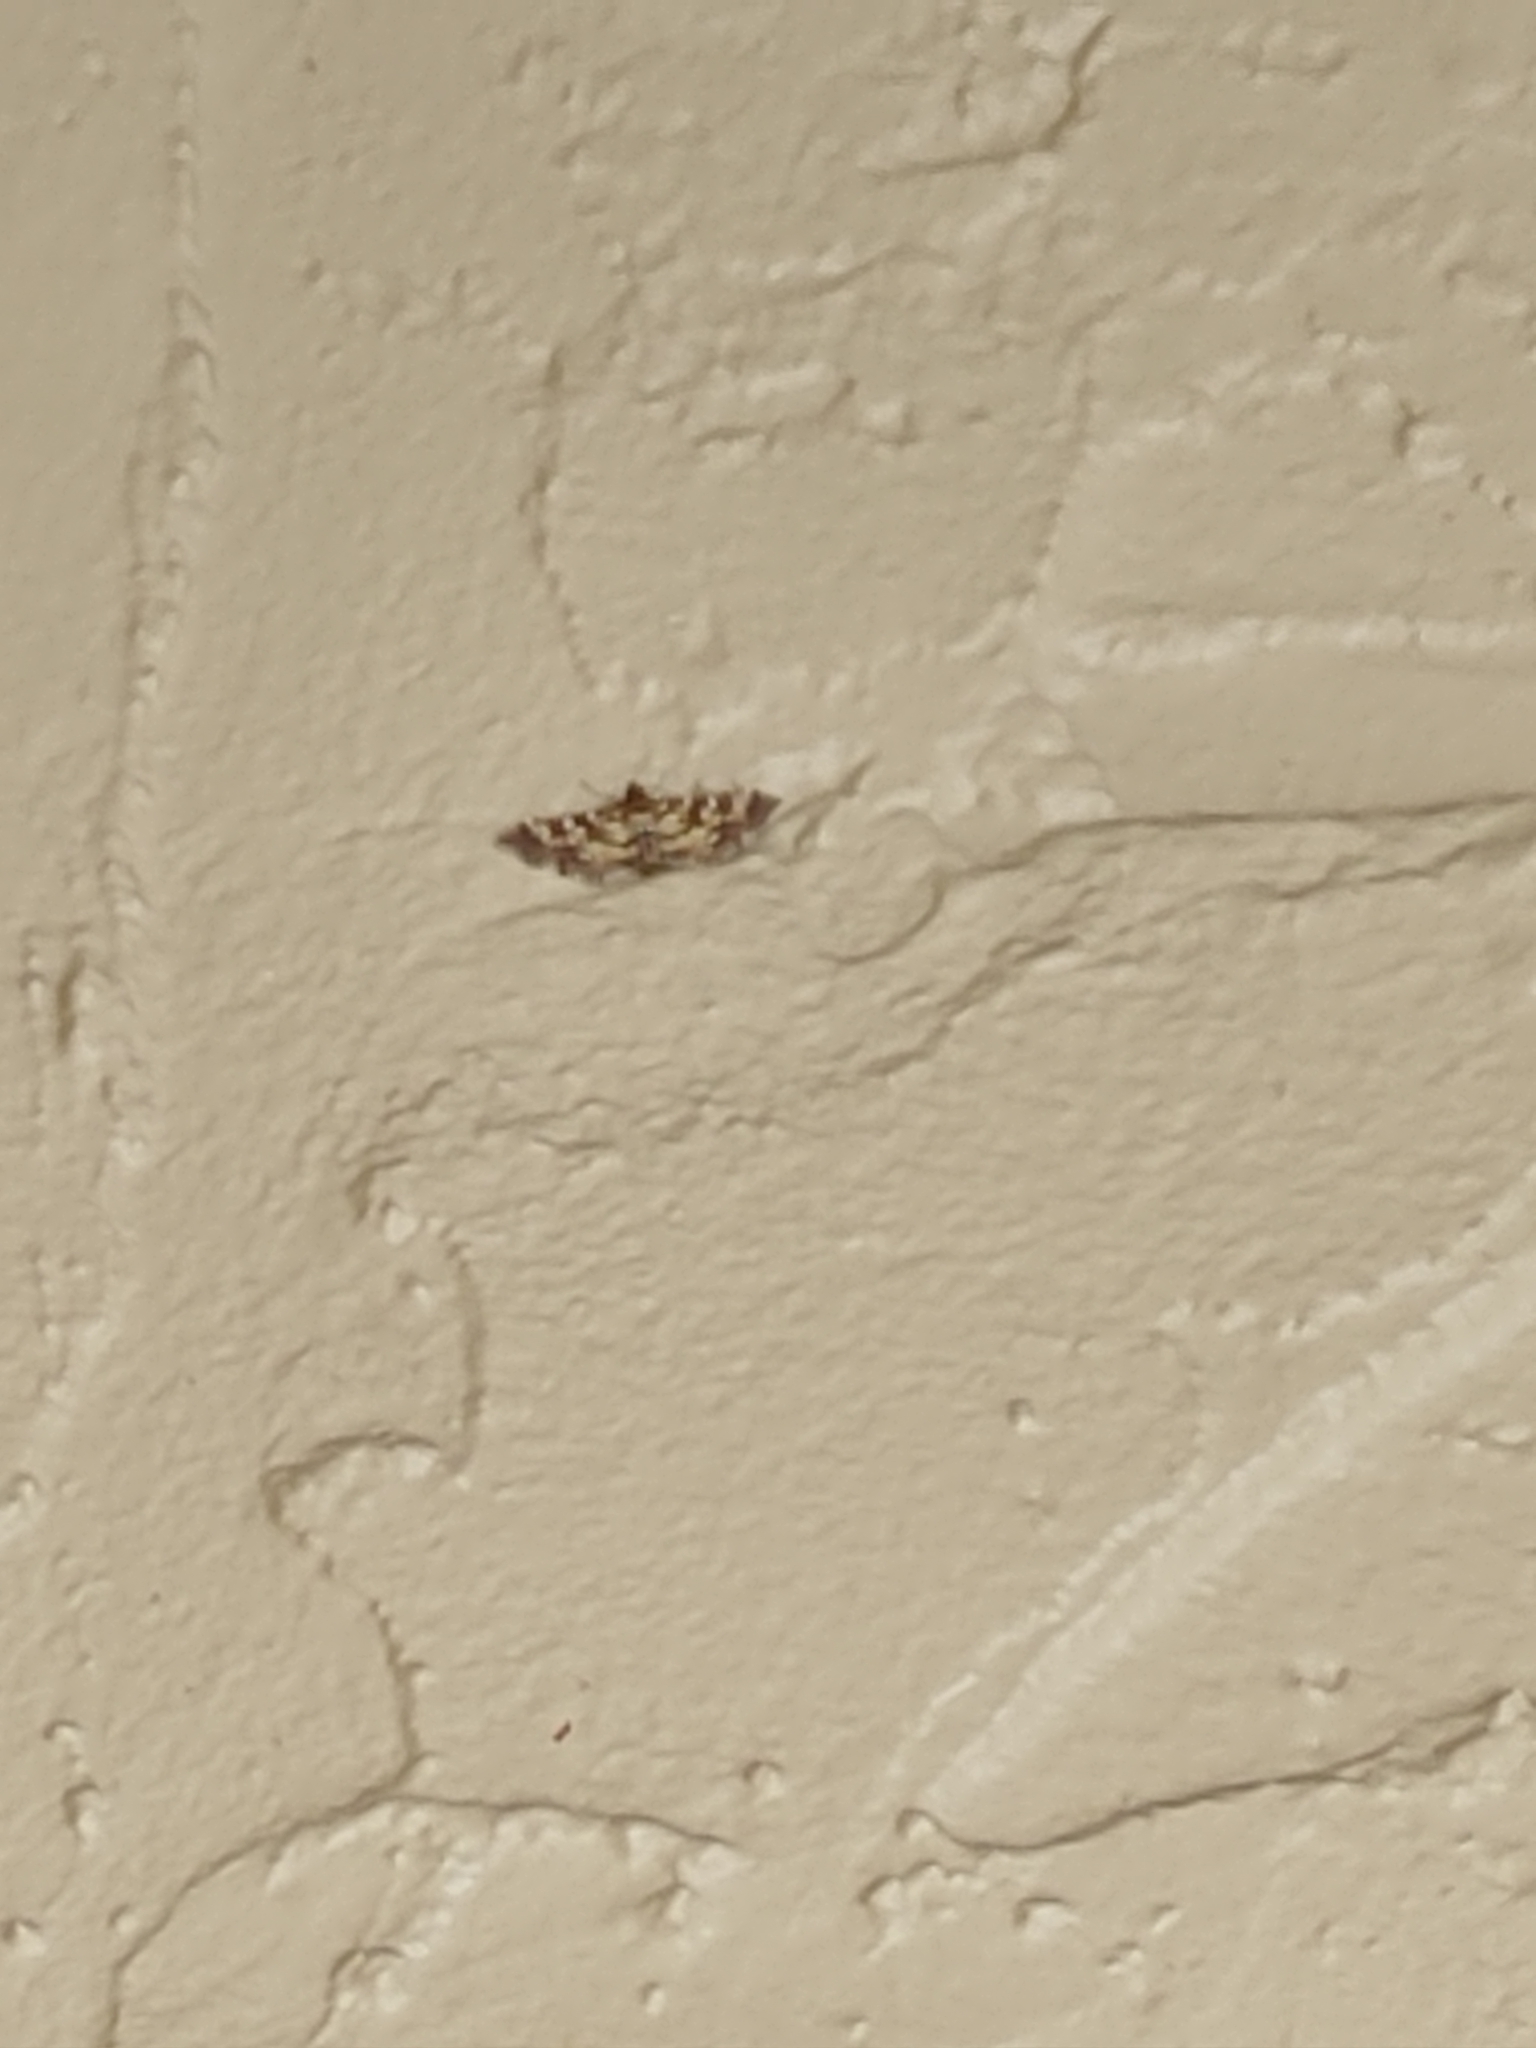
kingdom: Animalia
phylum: Arthropoda
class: Insecta
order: Lepidoptera
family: Crambidae
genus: Samea
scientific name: Samea ecclesialis
